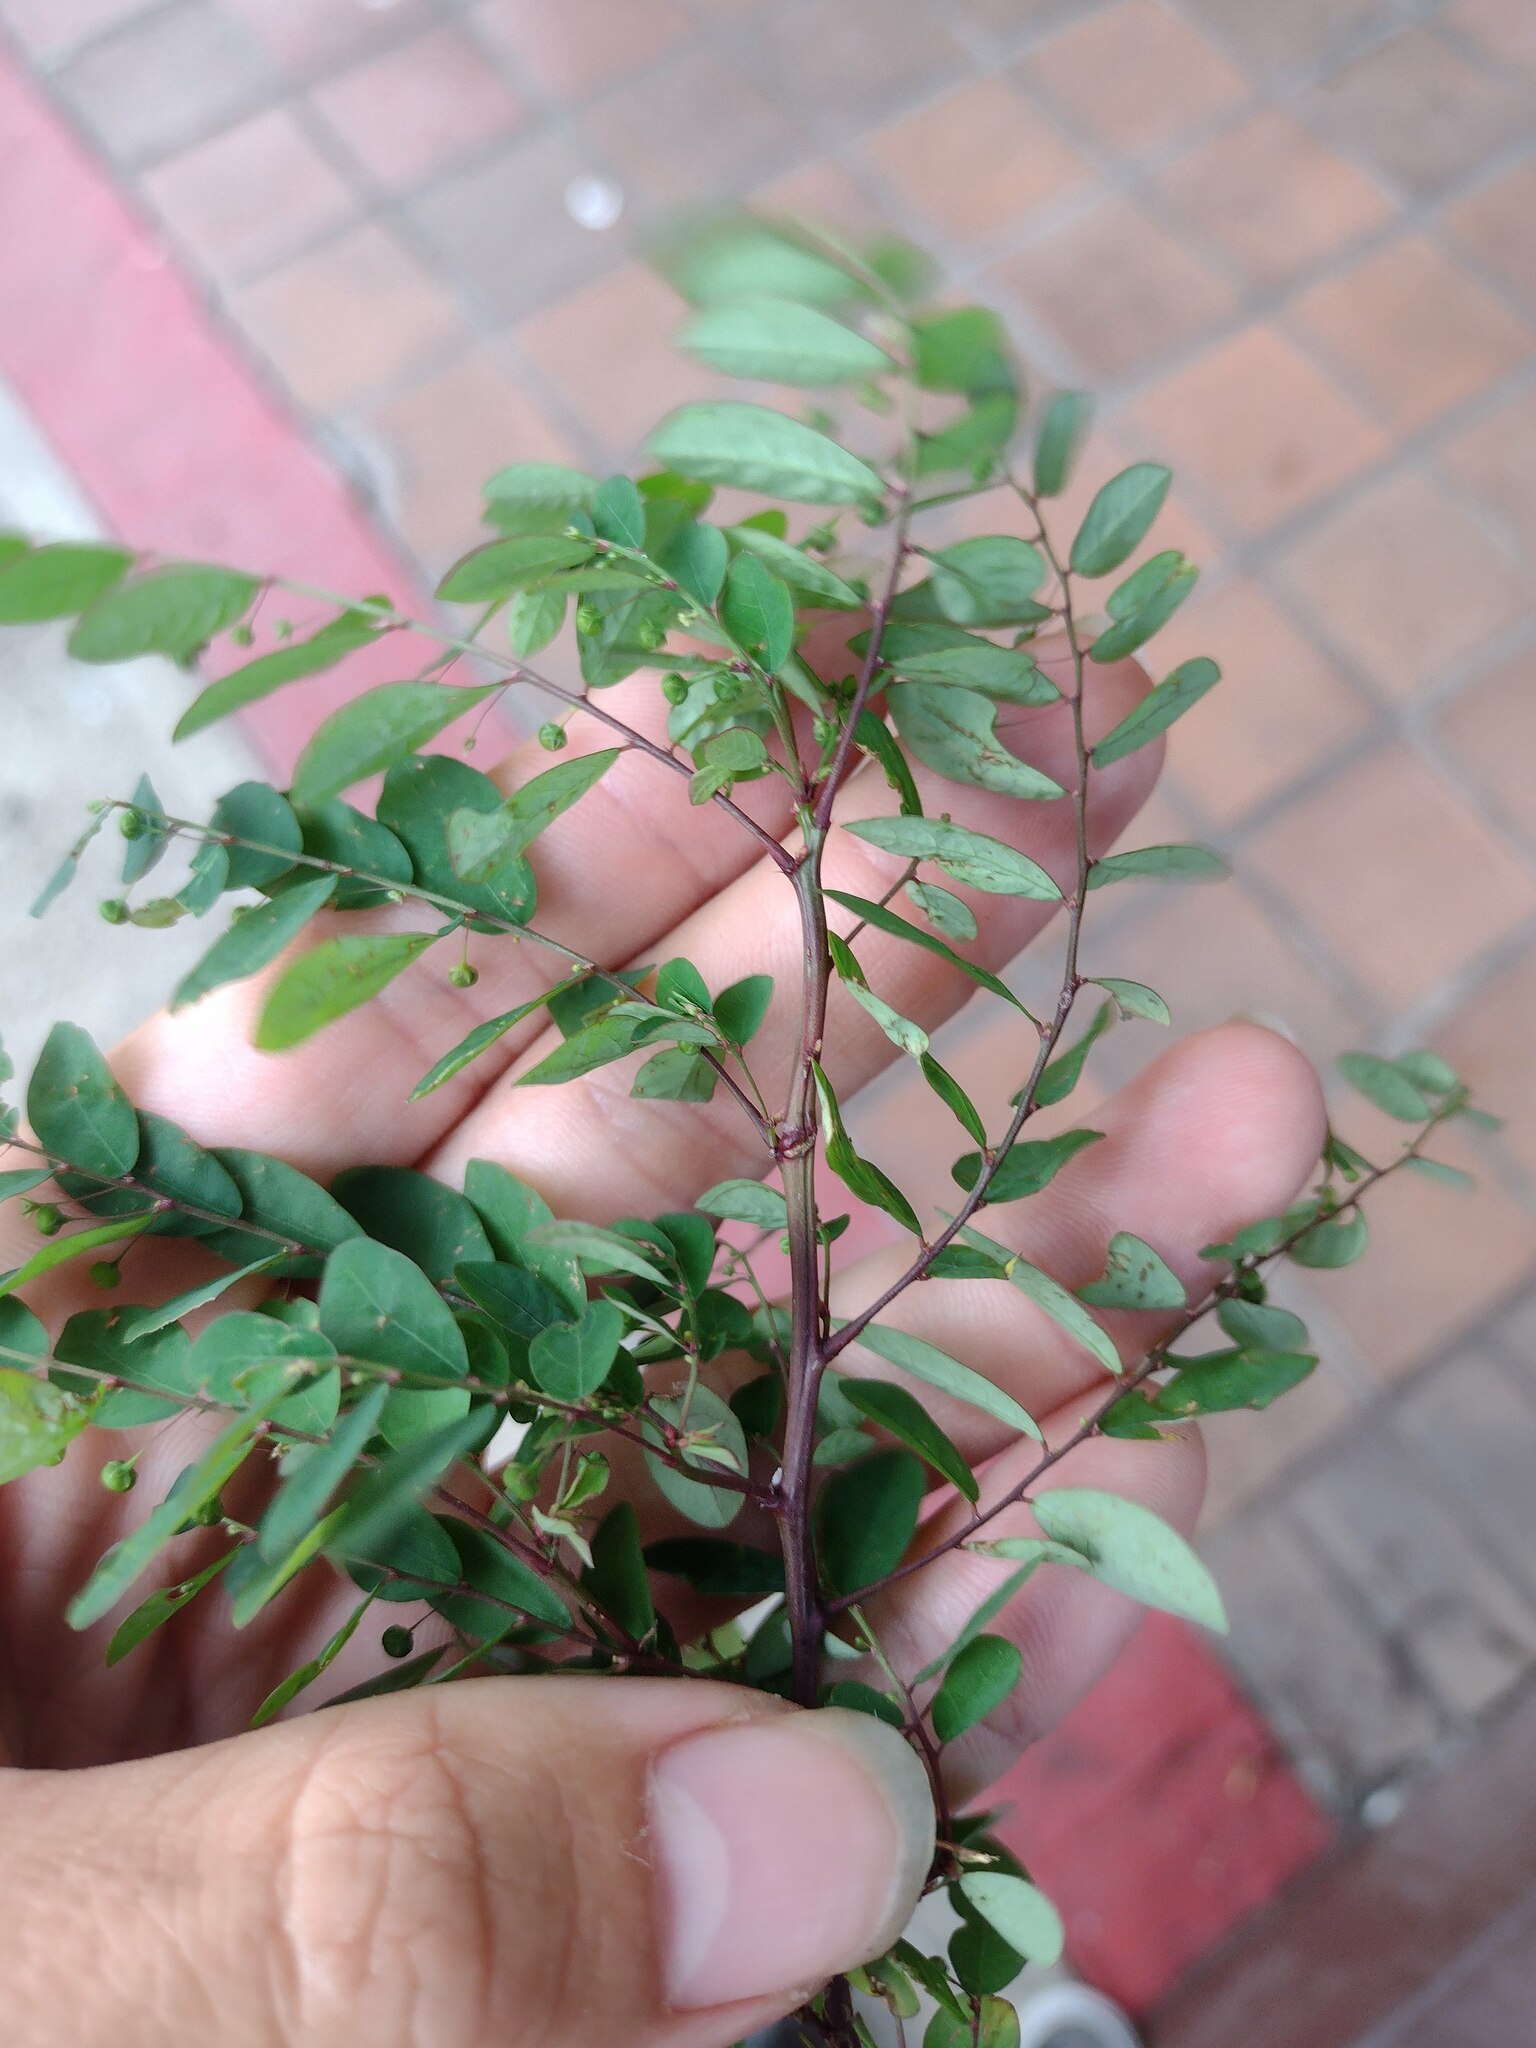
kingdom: Plantae
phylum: Tracheophyta
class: Magnoliopsida
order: Malpighiales
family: Phyllanthaceae
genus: Phyllanthus
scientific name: Phyllanthus tenellus
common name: Mascarene island leaf-flower
